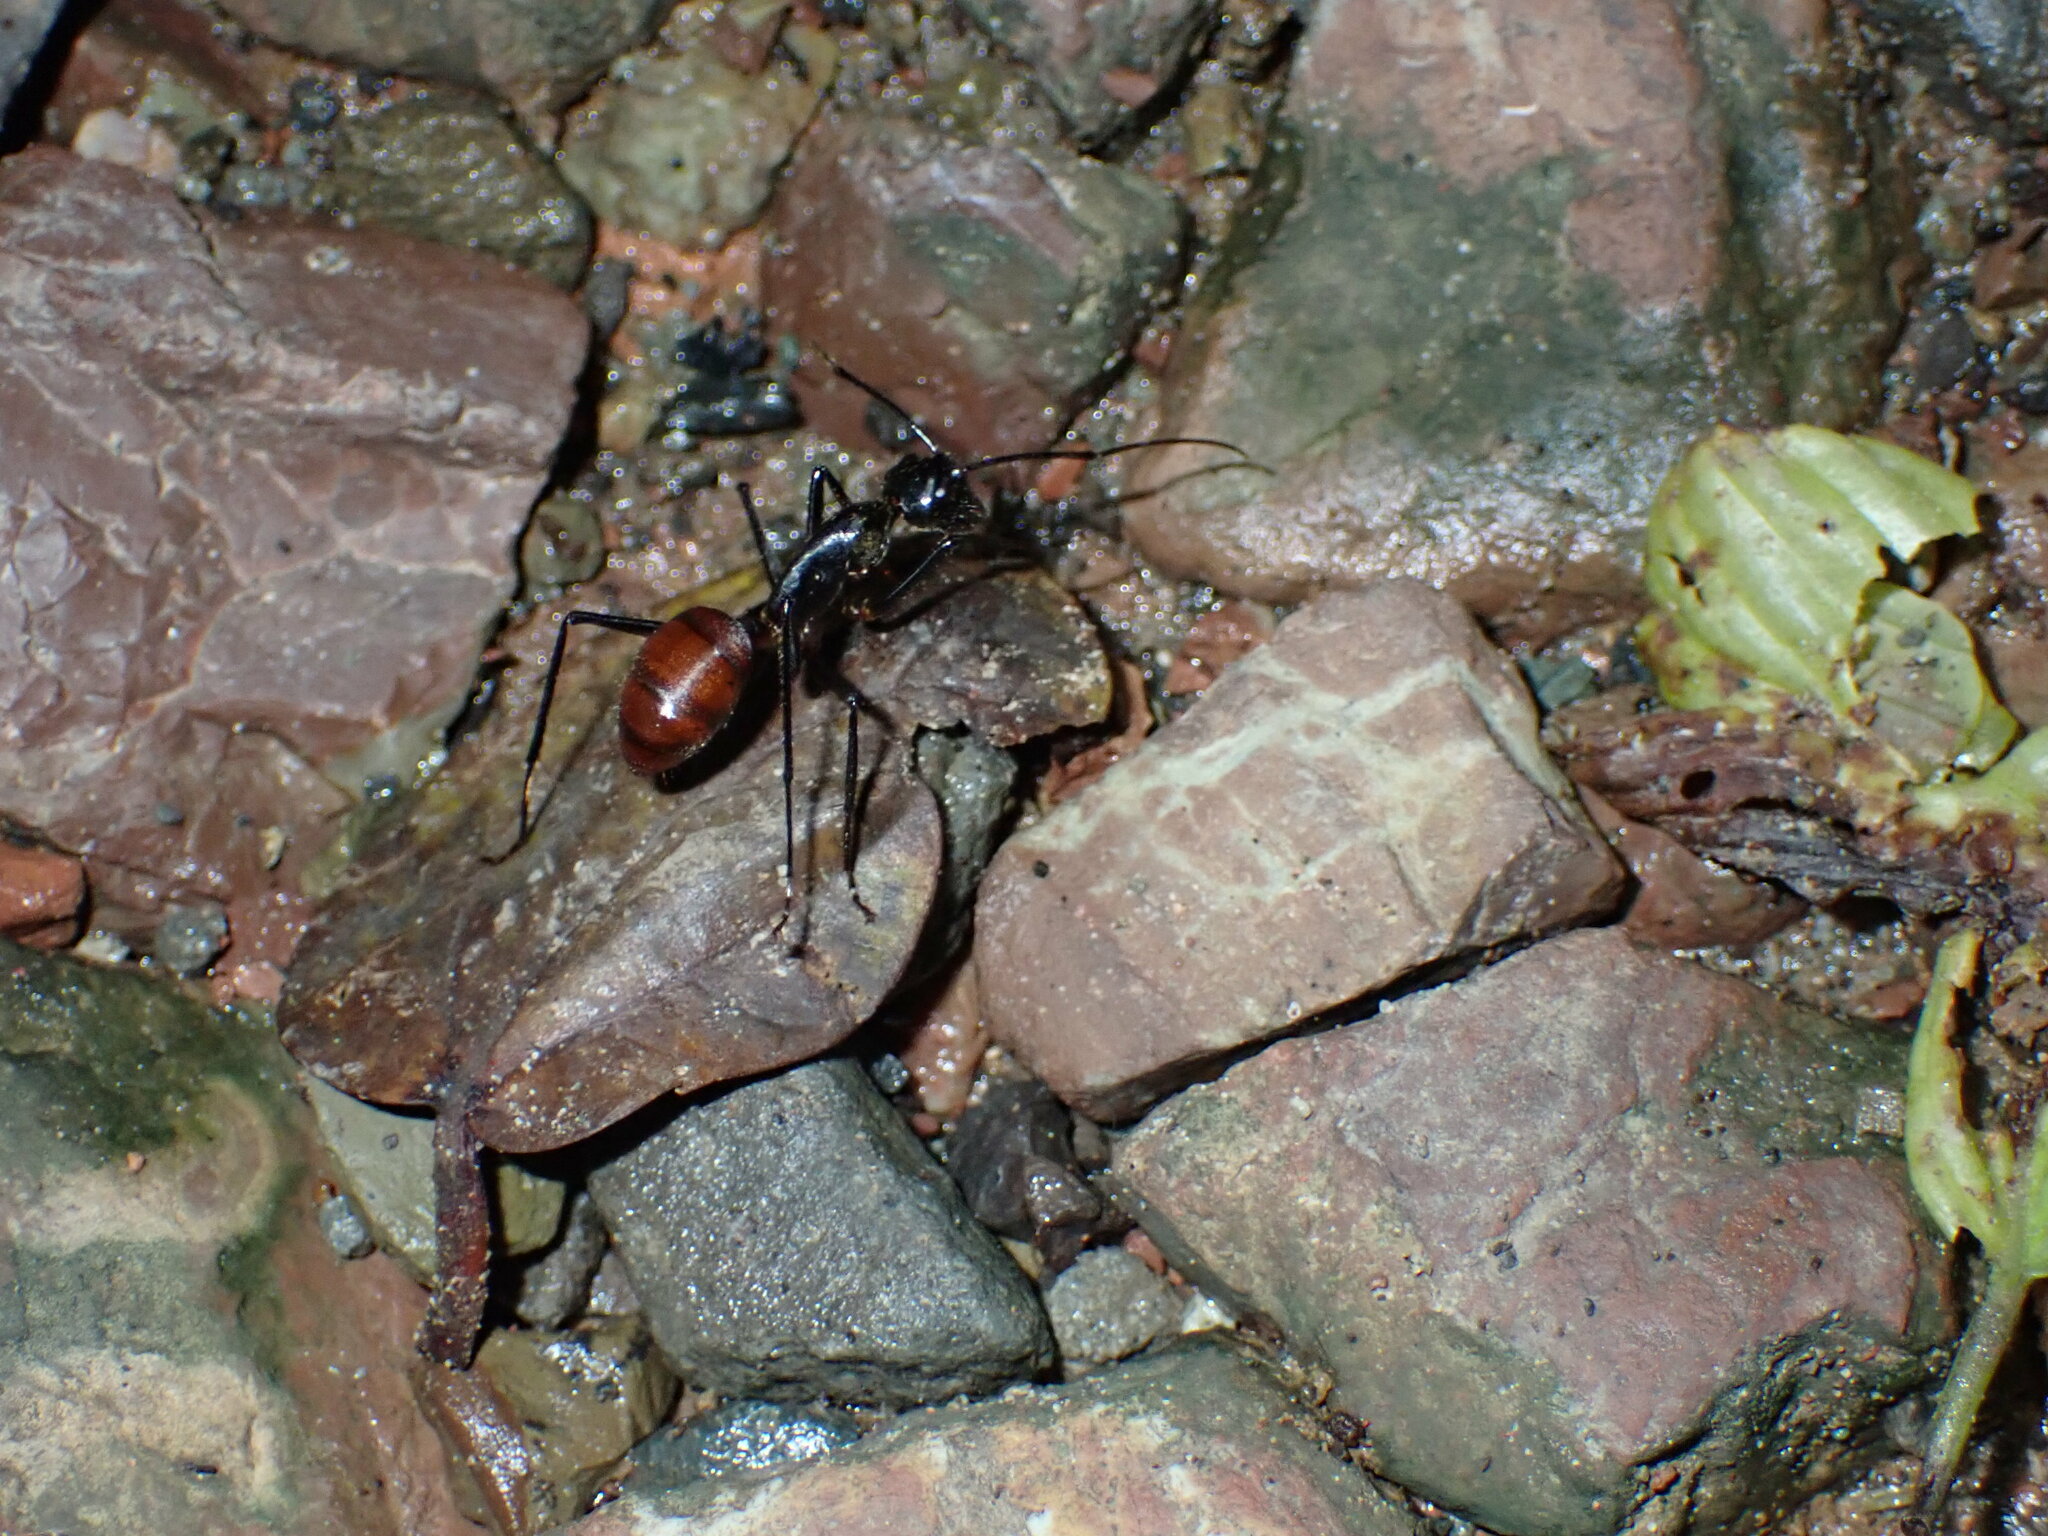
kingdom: Animalia
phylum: Arthropoda
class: Insecta
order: Hymenoptera
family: Formicidae
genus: Dinomyrmex
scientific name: Dinomyrmex
